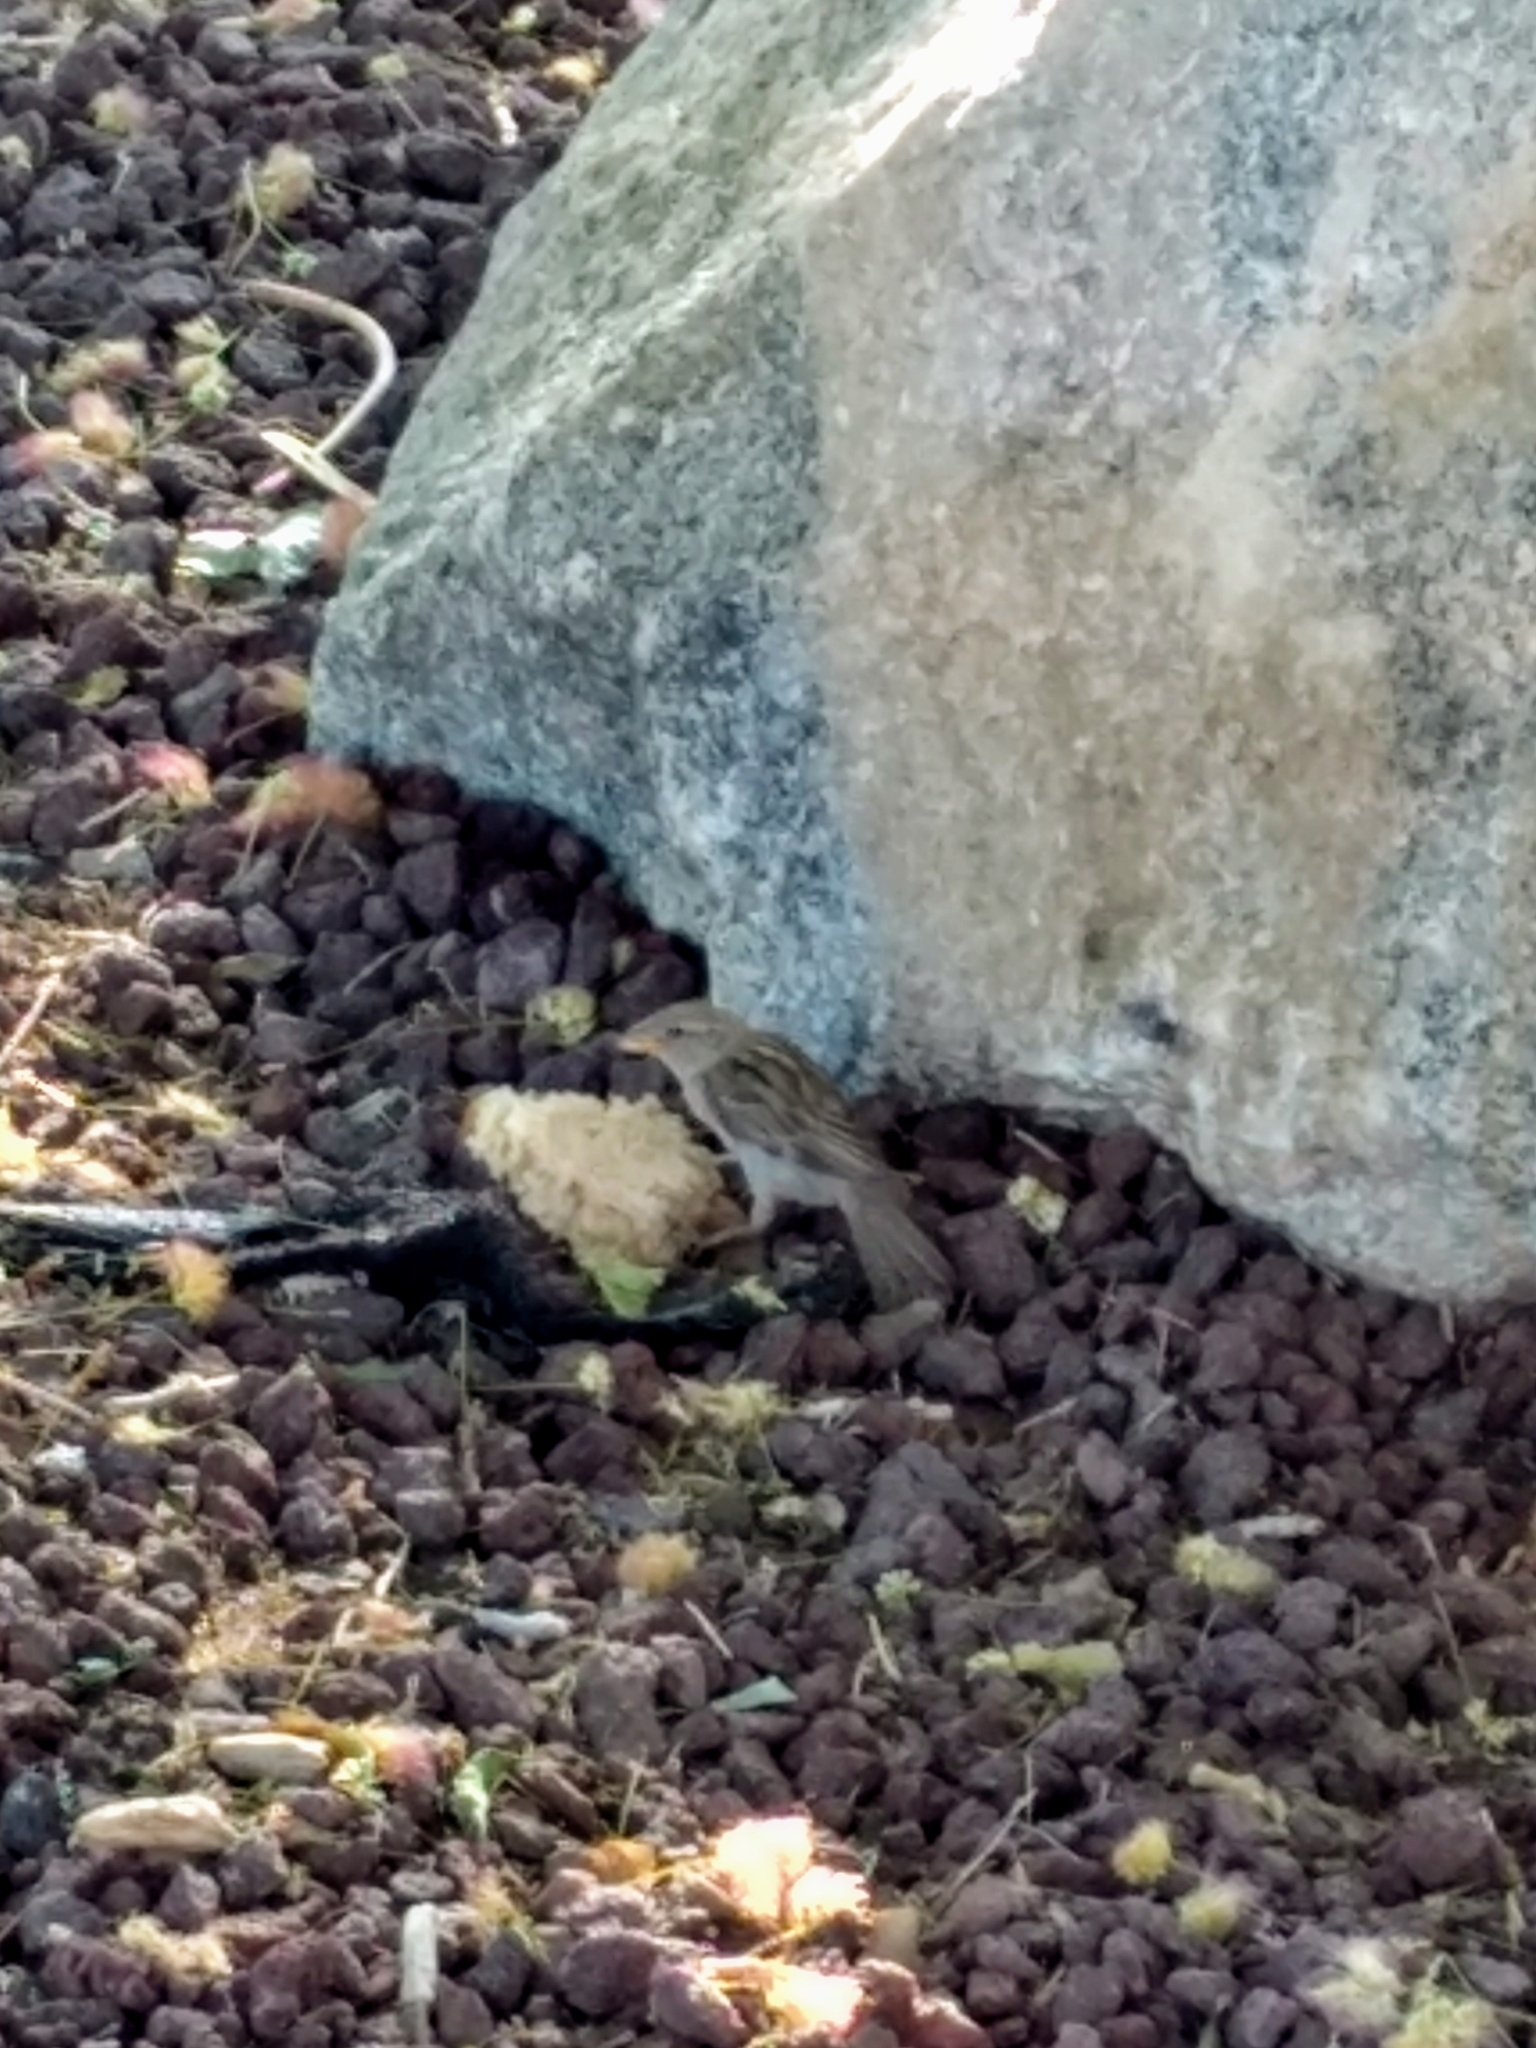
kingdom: Animalia
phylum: Chordata
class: Aves
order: Passeriformes
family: Passeridae
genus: Passer
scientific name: Passer domesticus
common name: House sparrow
